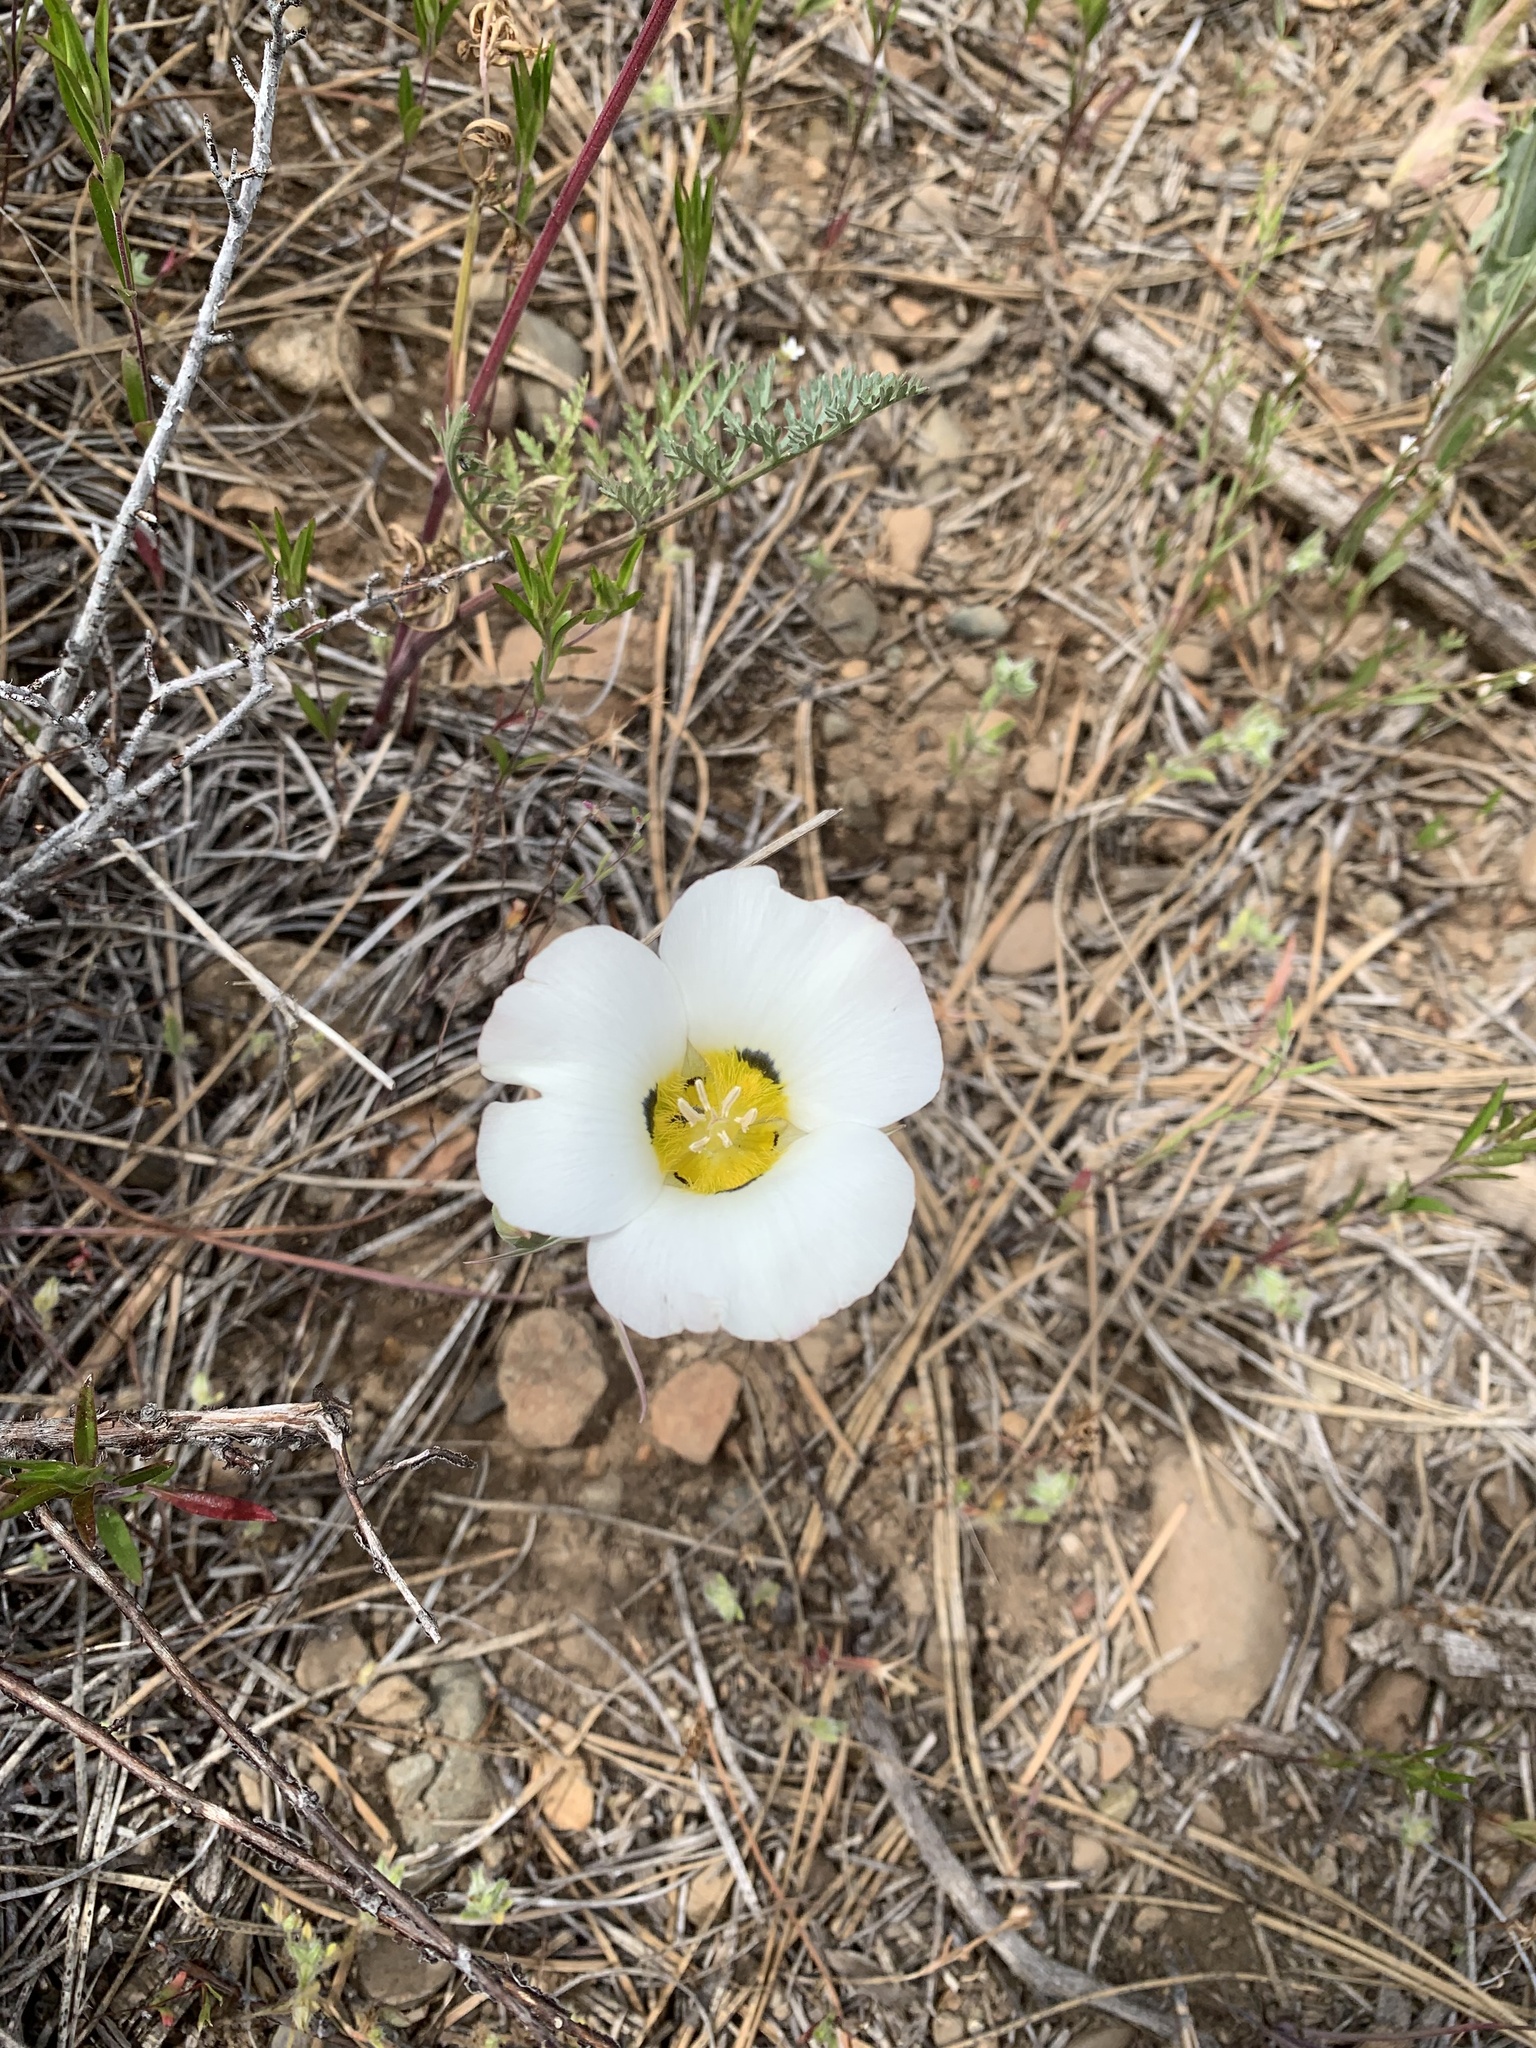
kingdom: Plantae
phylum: Tracheophyta
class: Liliopsida
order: Liliales
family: Liliaceae
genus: Calochortus
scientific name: Calochortus leichtlinii
